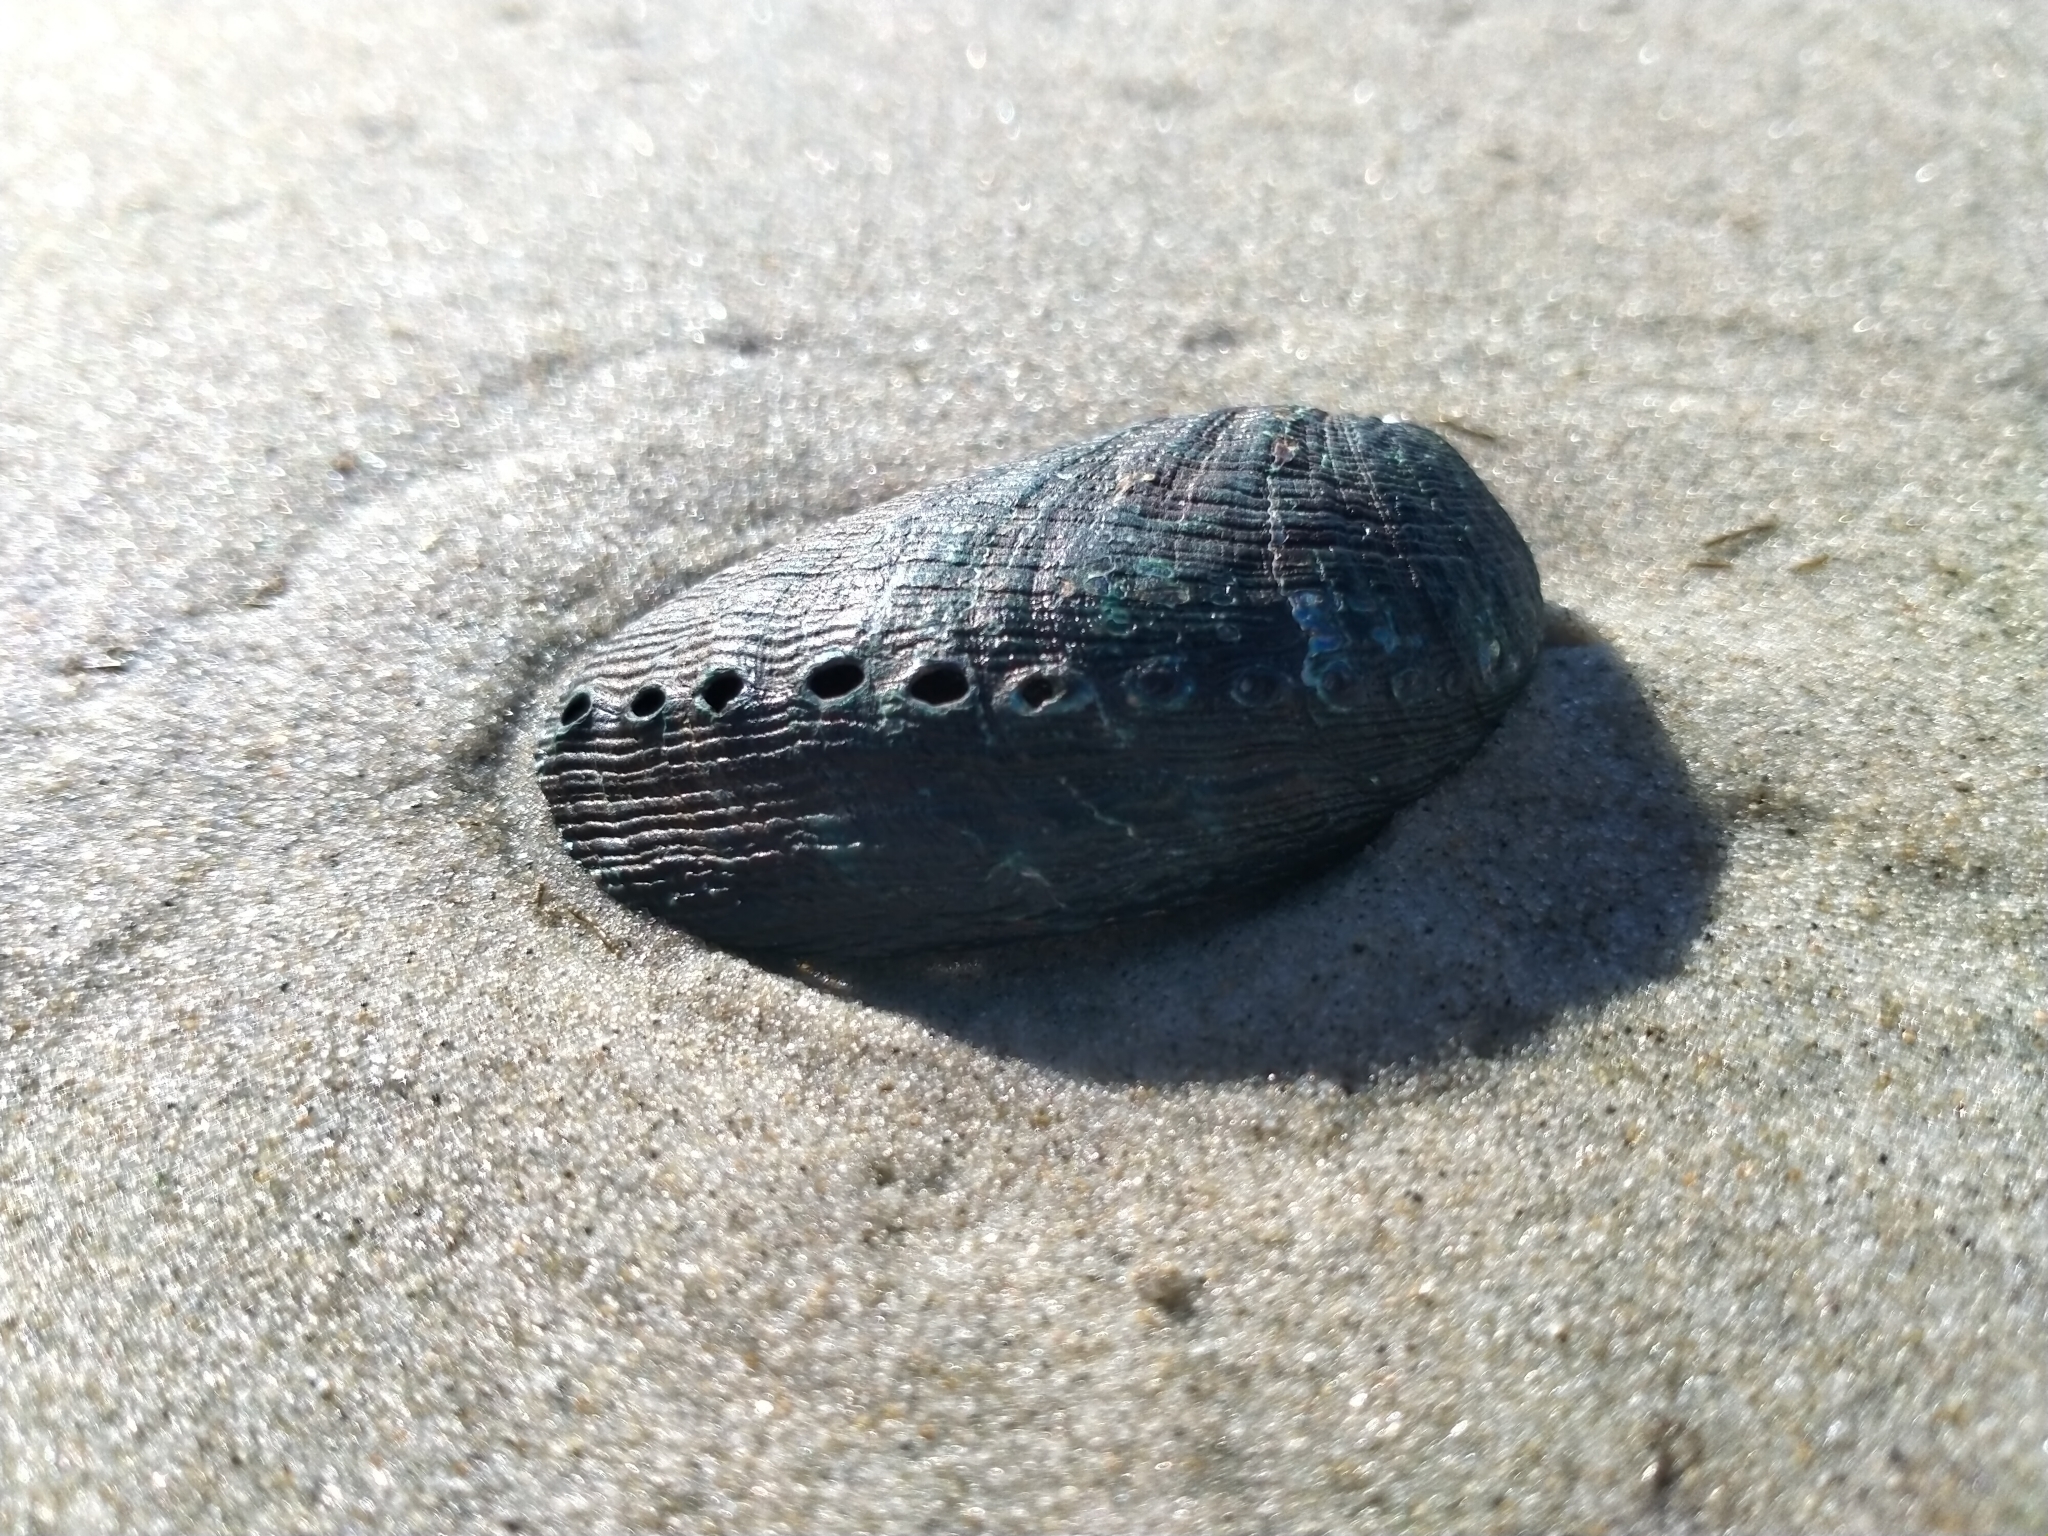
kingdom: Animalia
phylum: Mollusca
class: Gastropoda
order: Lepetellida
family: Haliotidae
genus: Haliotis
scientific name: Haliotis virginea
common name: Whitefoot paua
